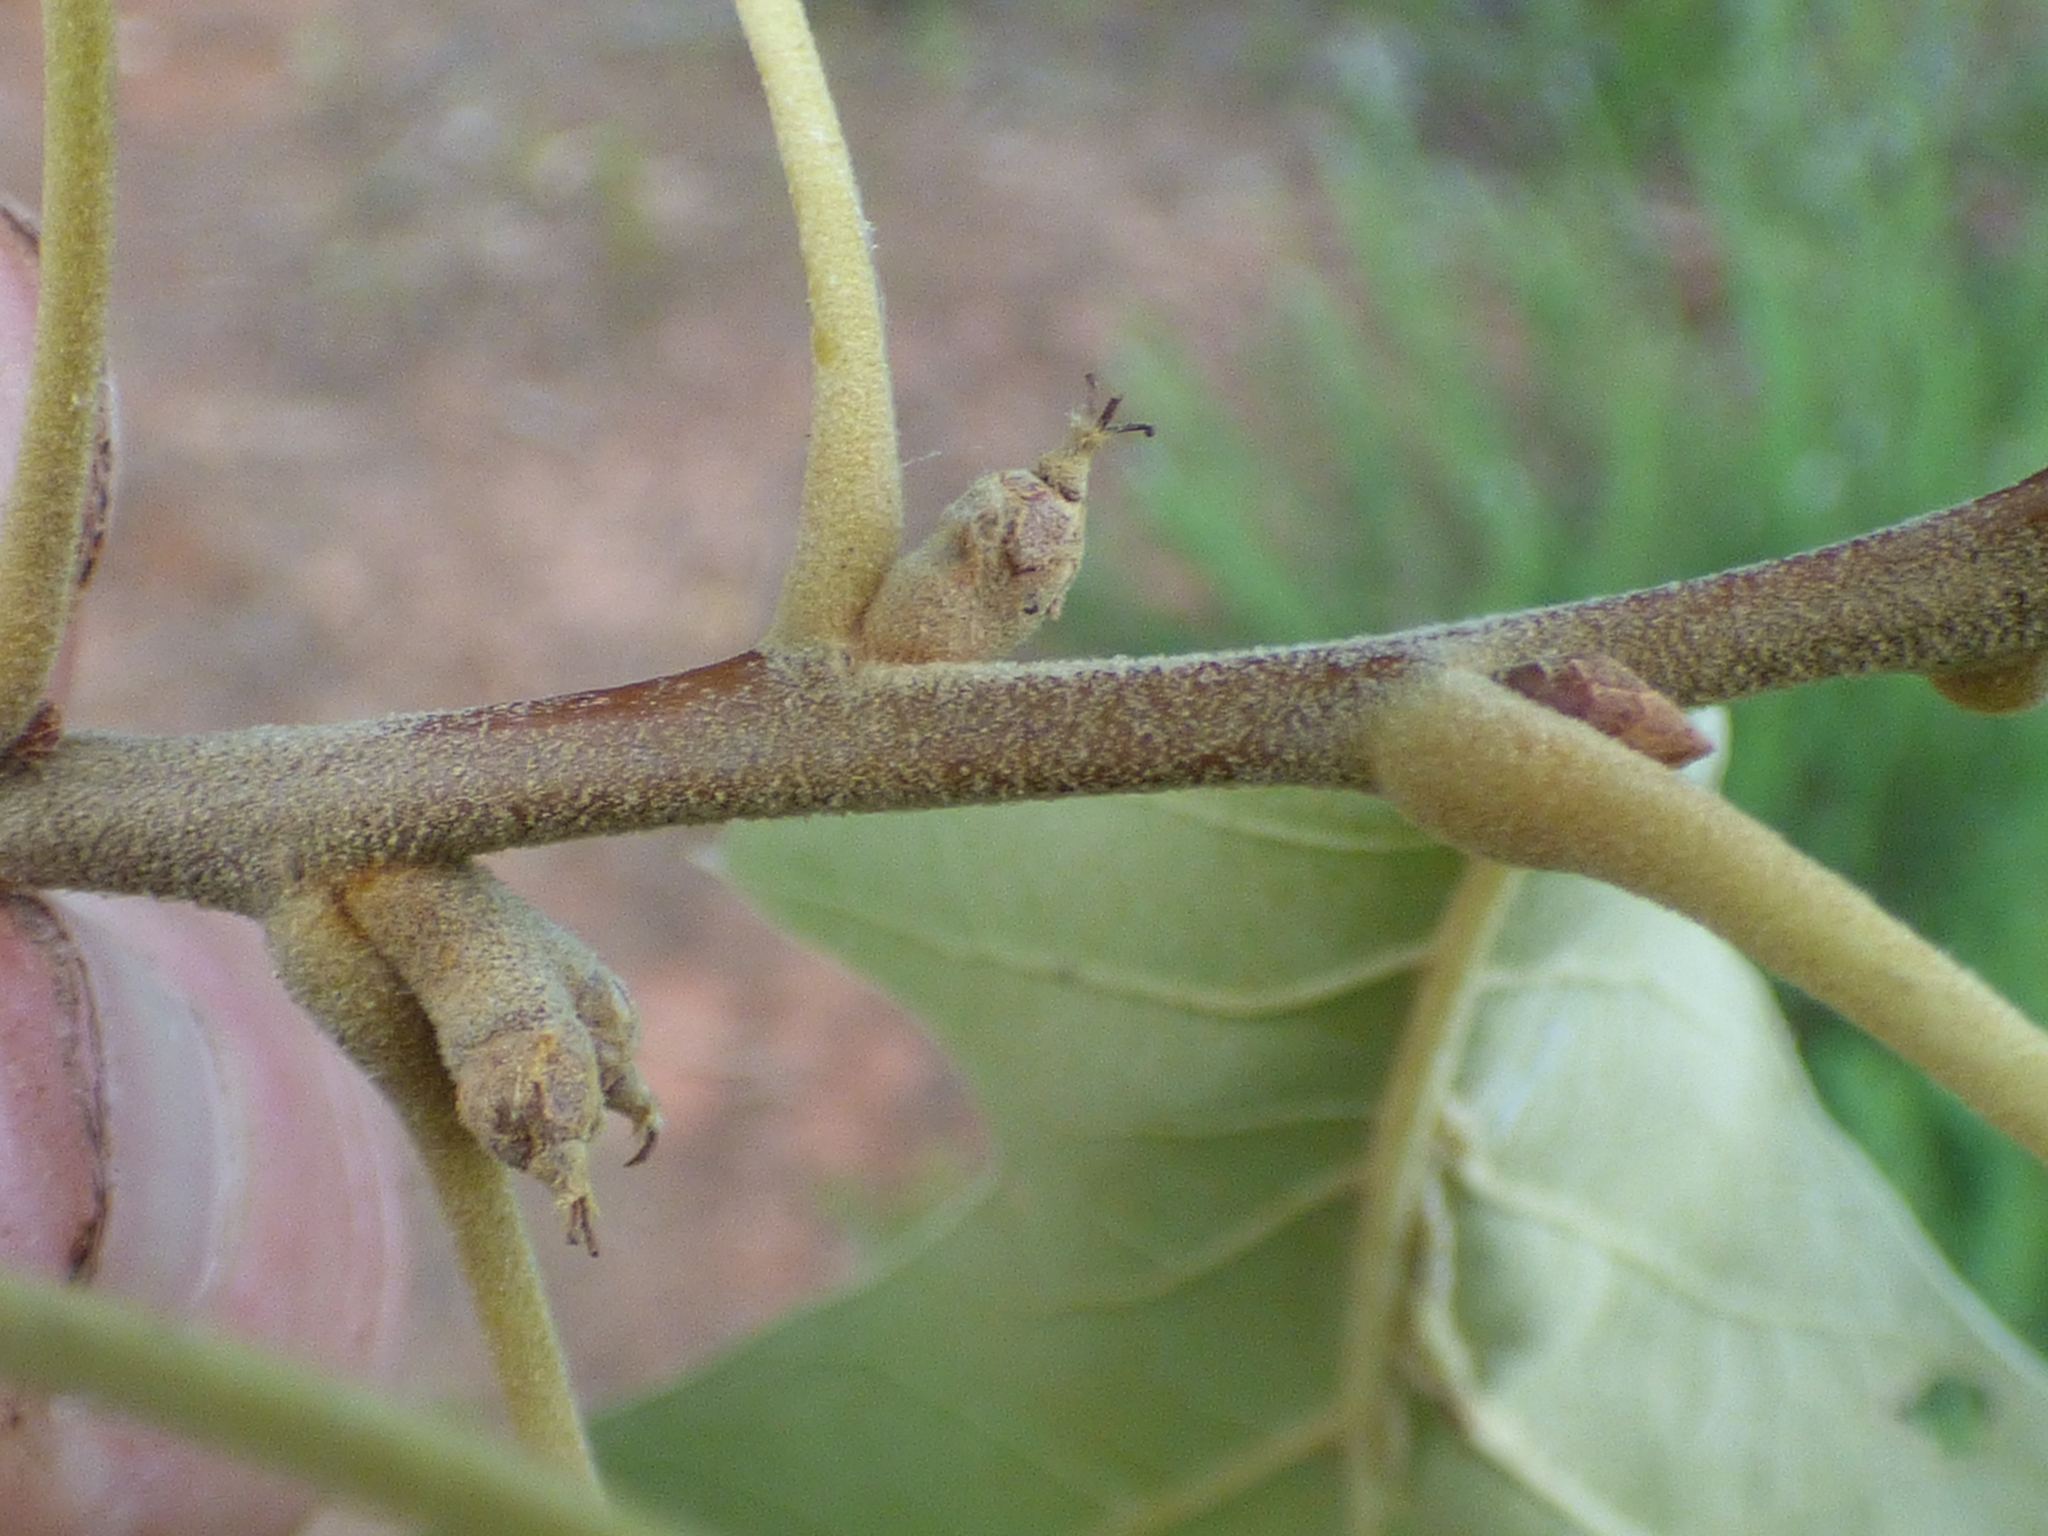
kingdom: Plantae
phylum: Tracheophyta
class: Magnoliopsida
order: Fagales
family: Fagaceae
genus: Quercus
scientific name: Quercus falcata
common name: Southern red oak
